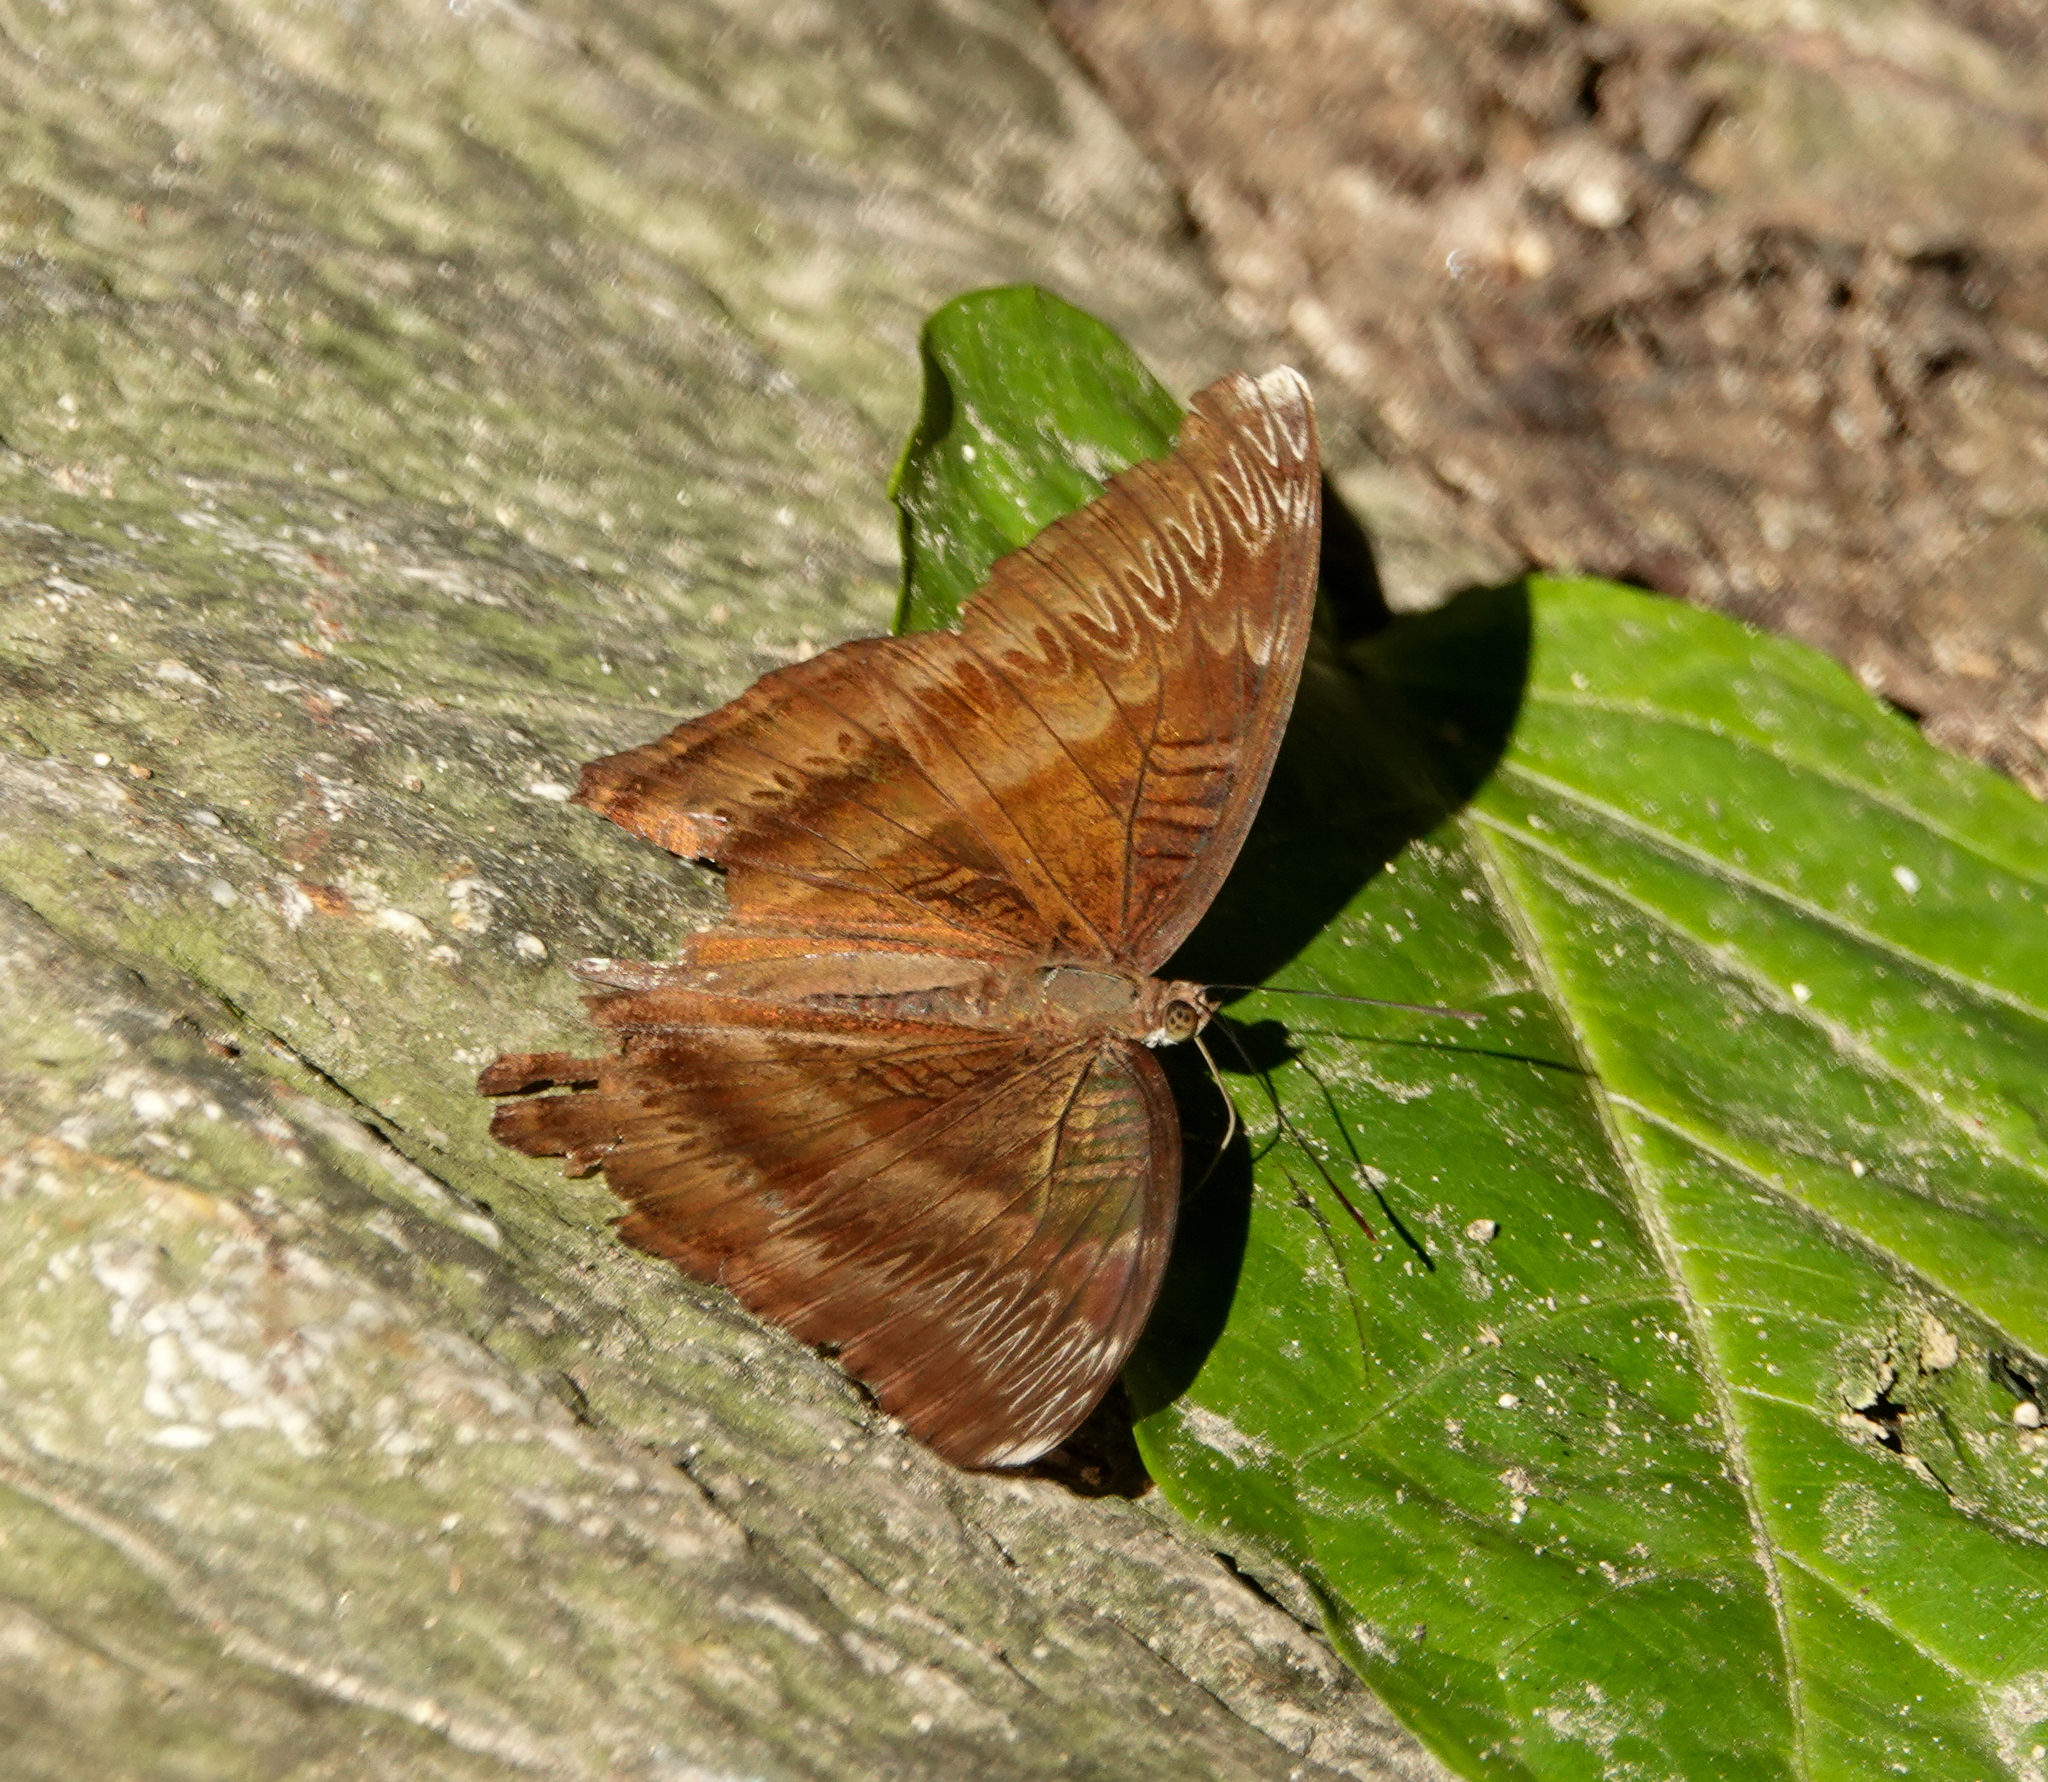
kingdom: Animalia
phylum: Arthropoda
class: Insecta
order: Lepidoptera
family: Nymphalidae
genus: Limenitis
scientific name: Limenitis Bhagadatta austenia
